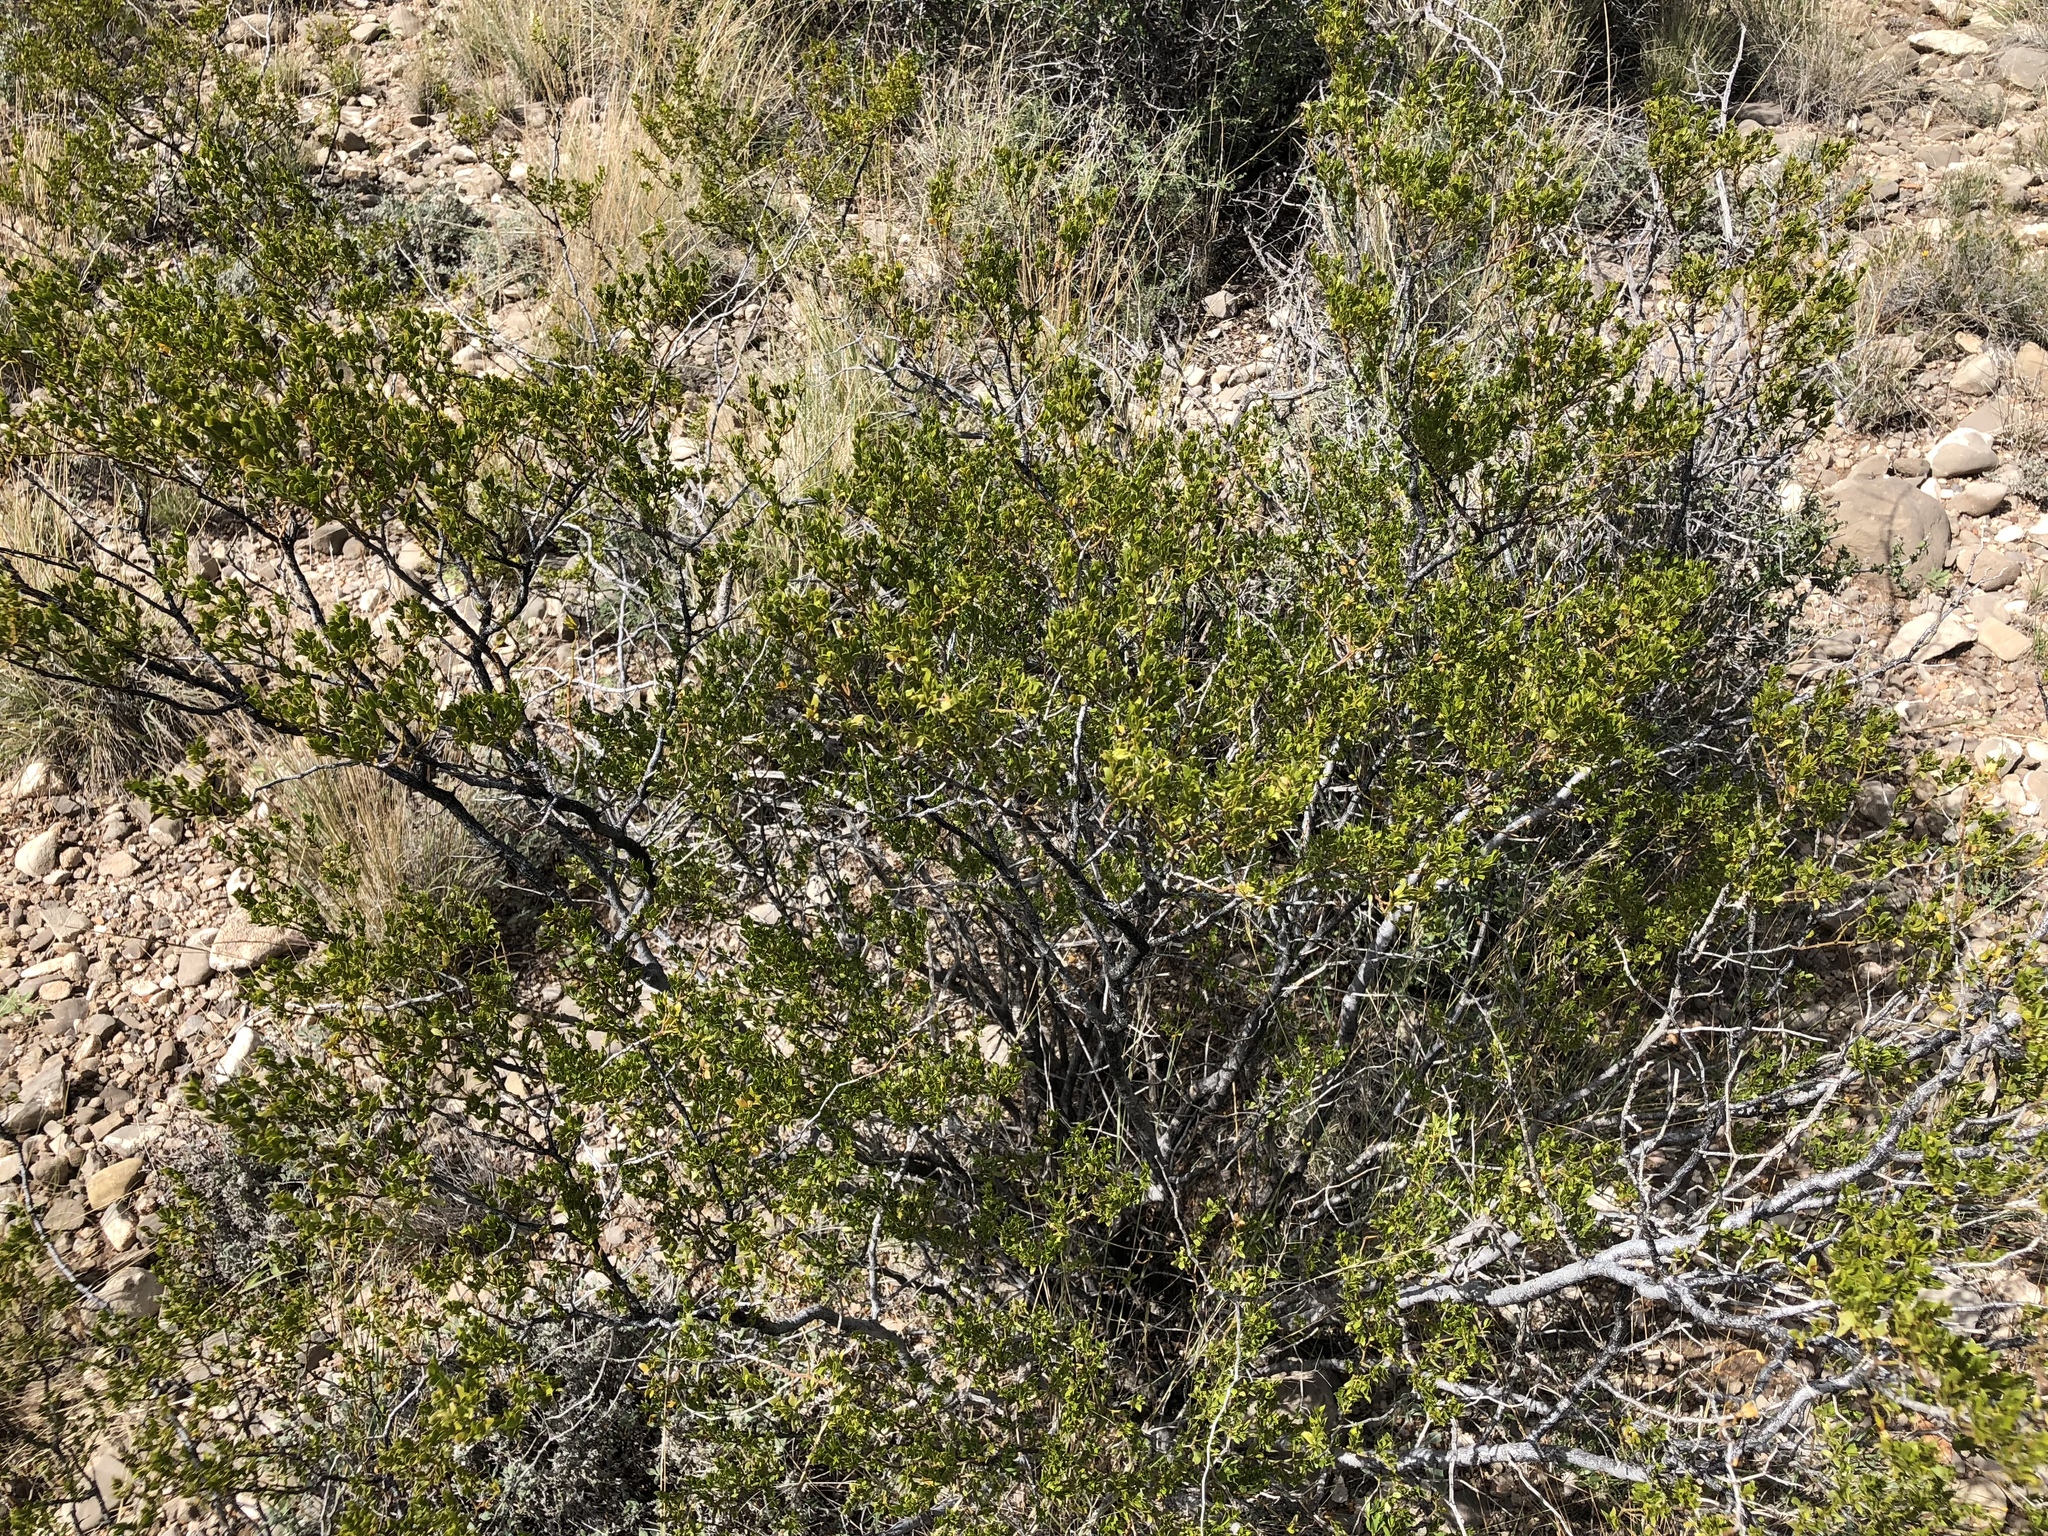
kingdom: Plantae
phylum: Tracheophyta
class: Magnoliopsida
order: Zygophyllales
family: Zygophyllaceae
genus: Larrea
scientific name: Larrea tridentata
